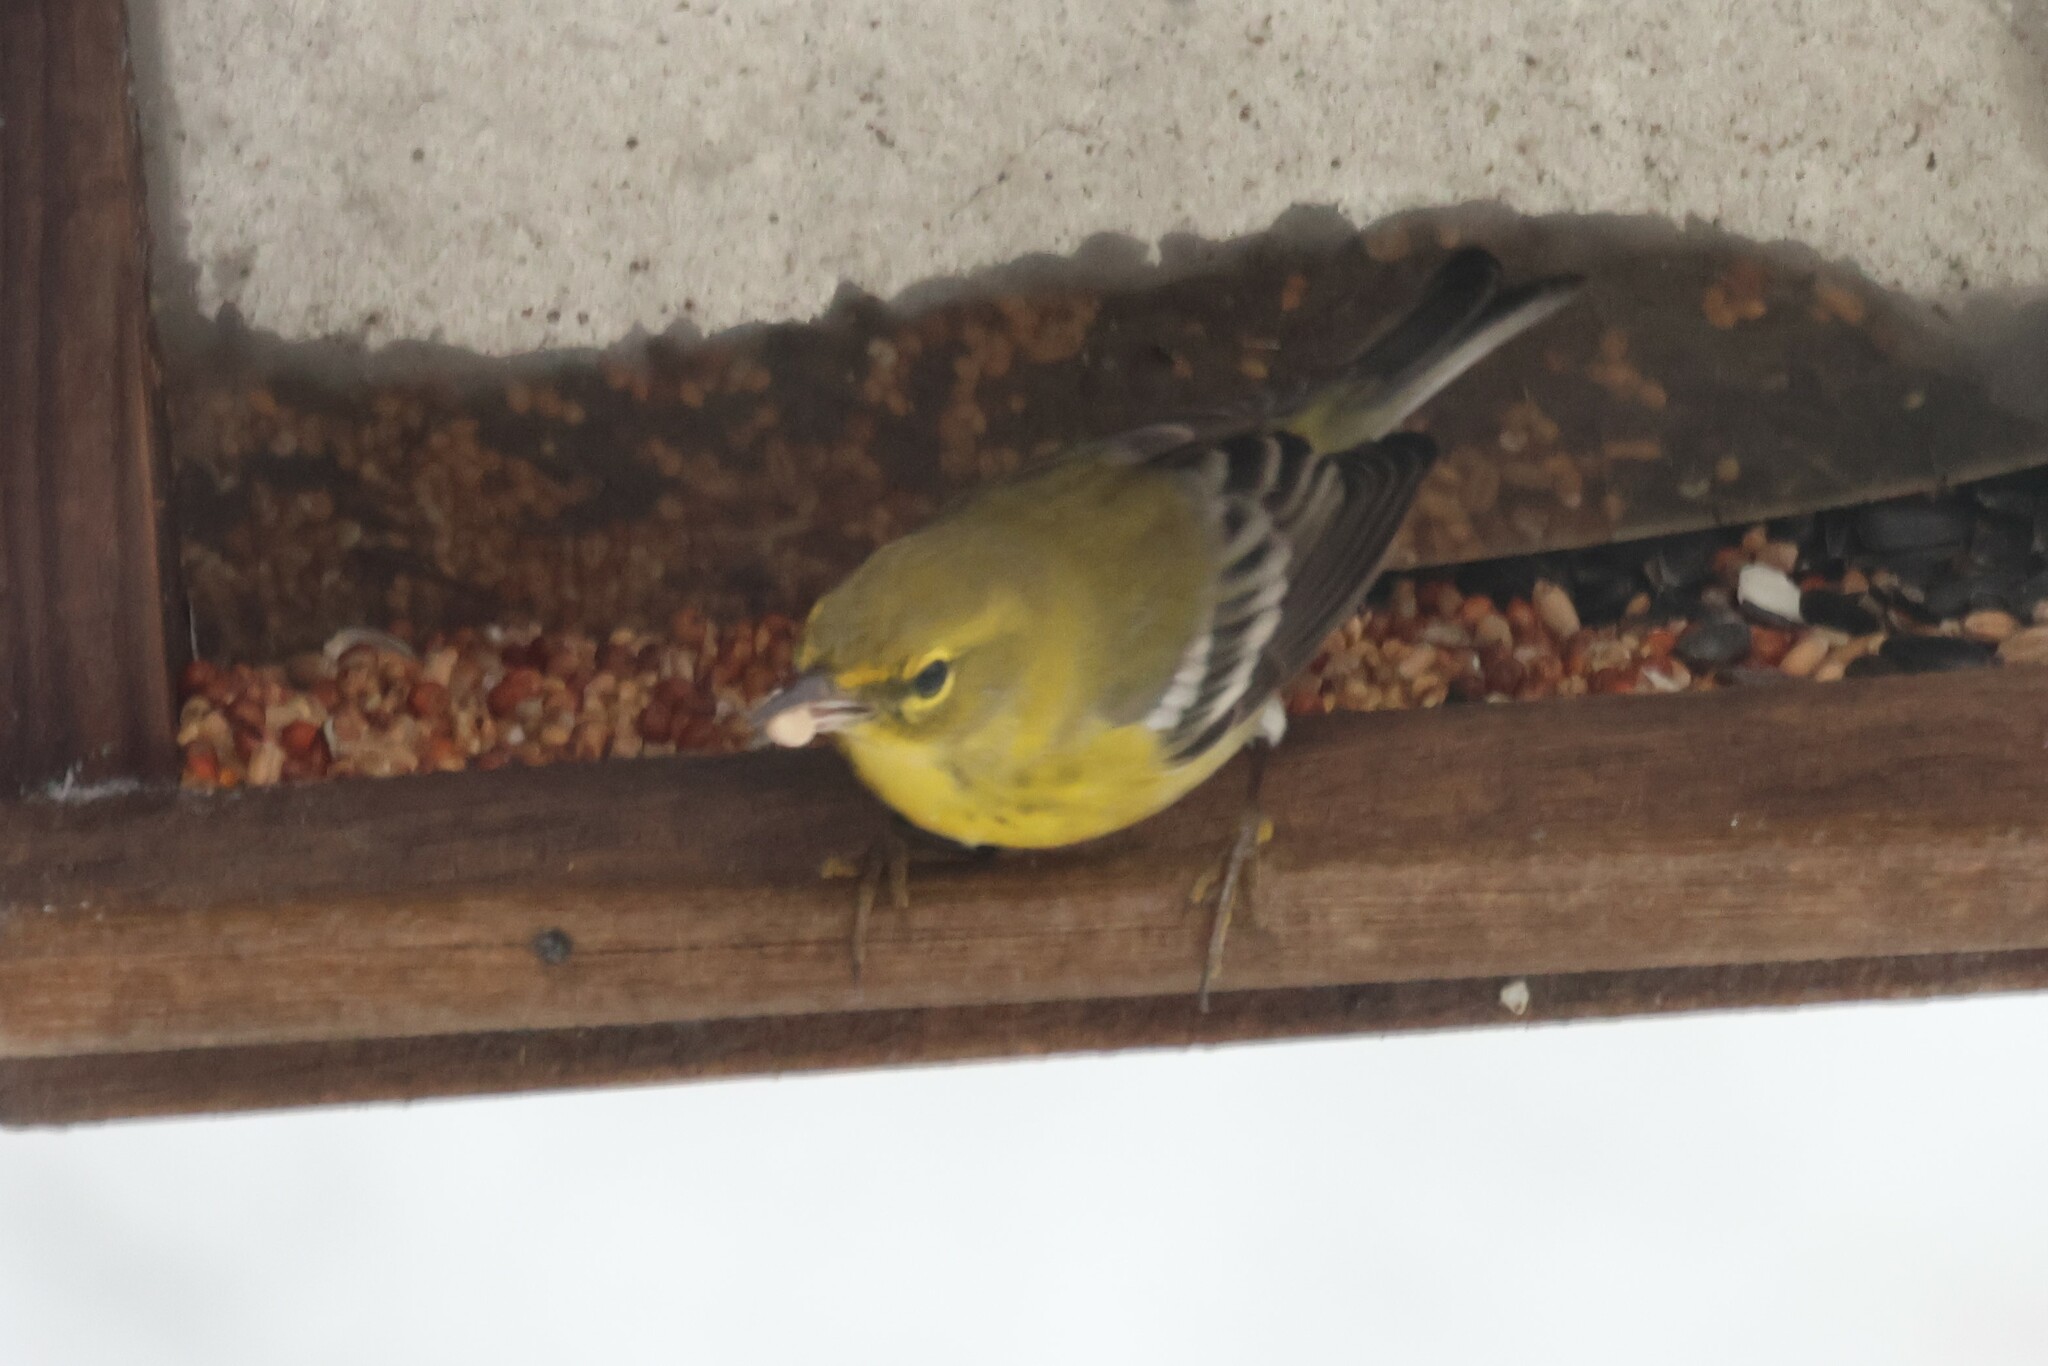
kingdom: Animalia
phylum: Chordata
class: Aves
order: Passeriformes
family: Parulidae
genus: Setophaga
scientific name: Setophaga pinus
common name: Pine warbler
